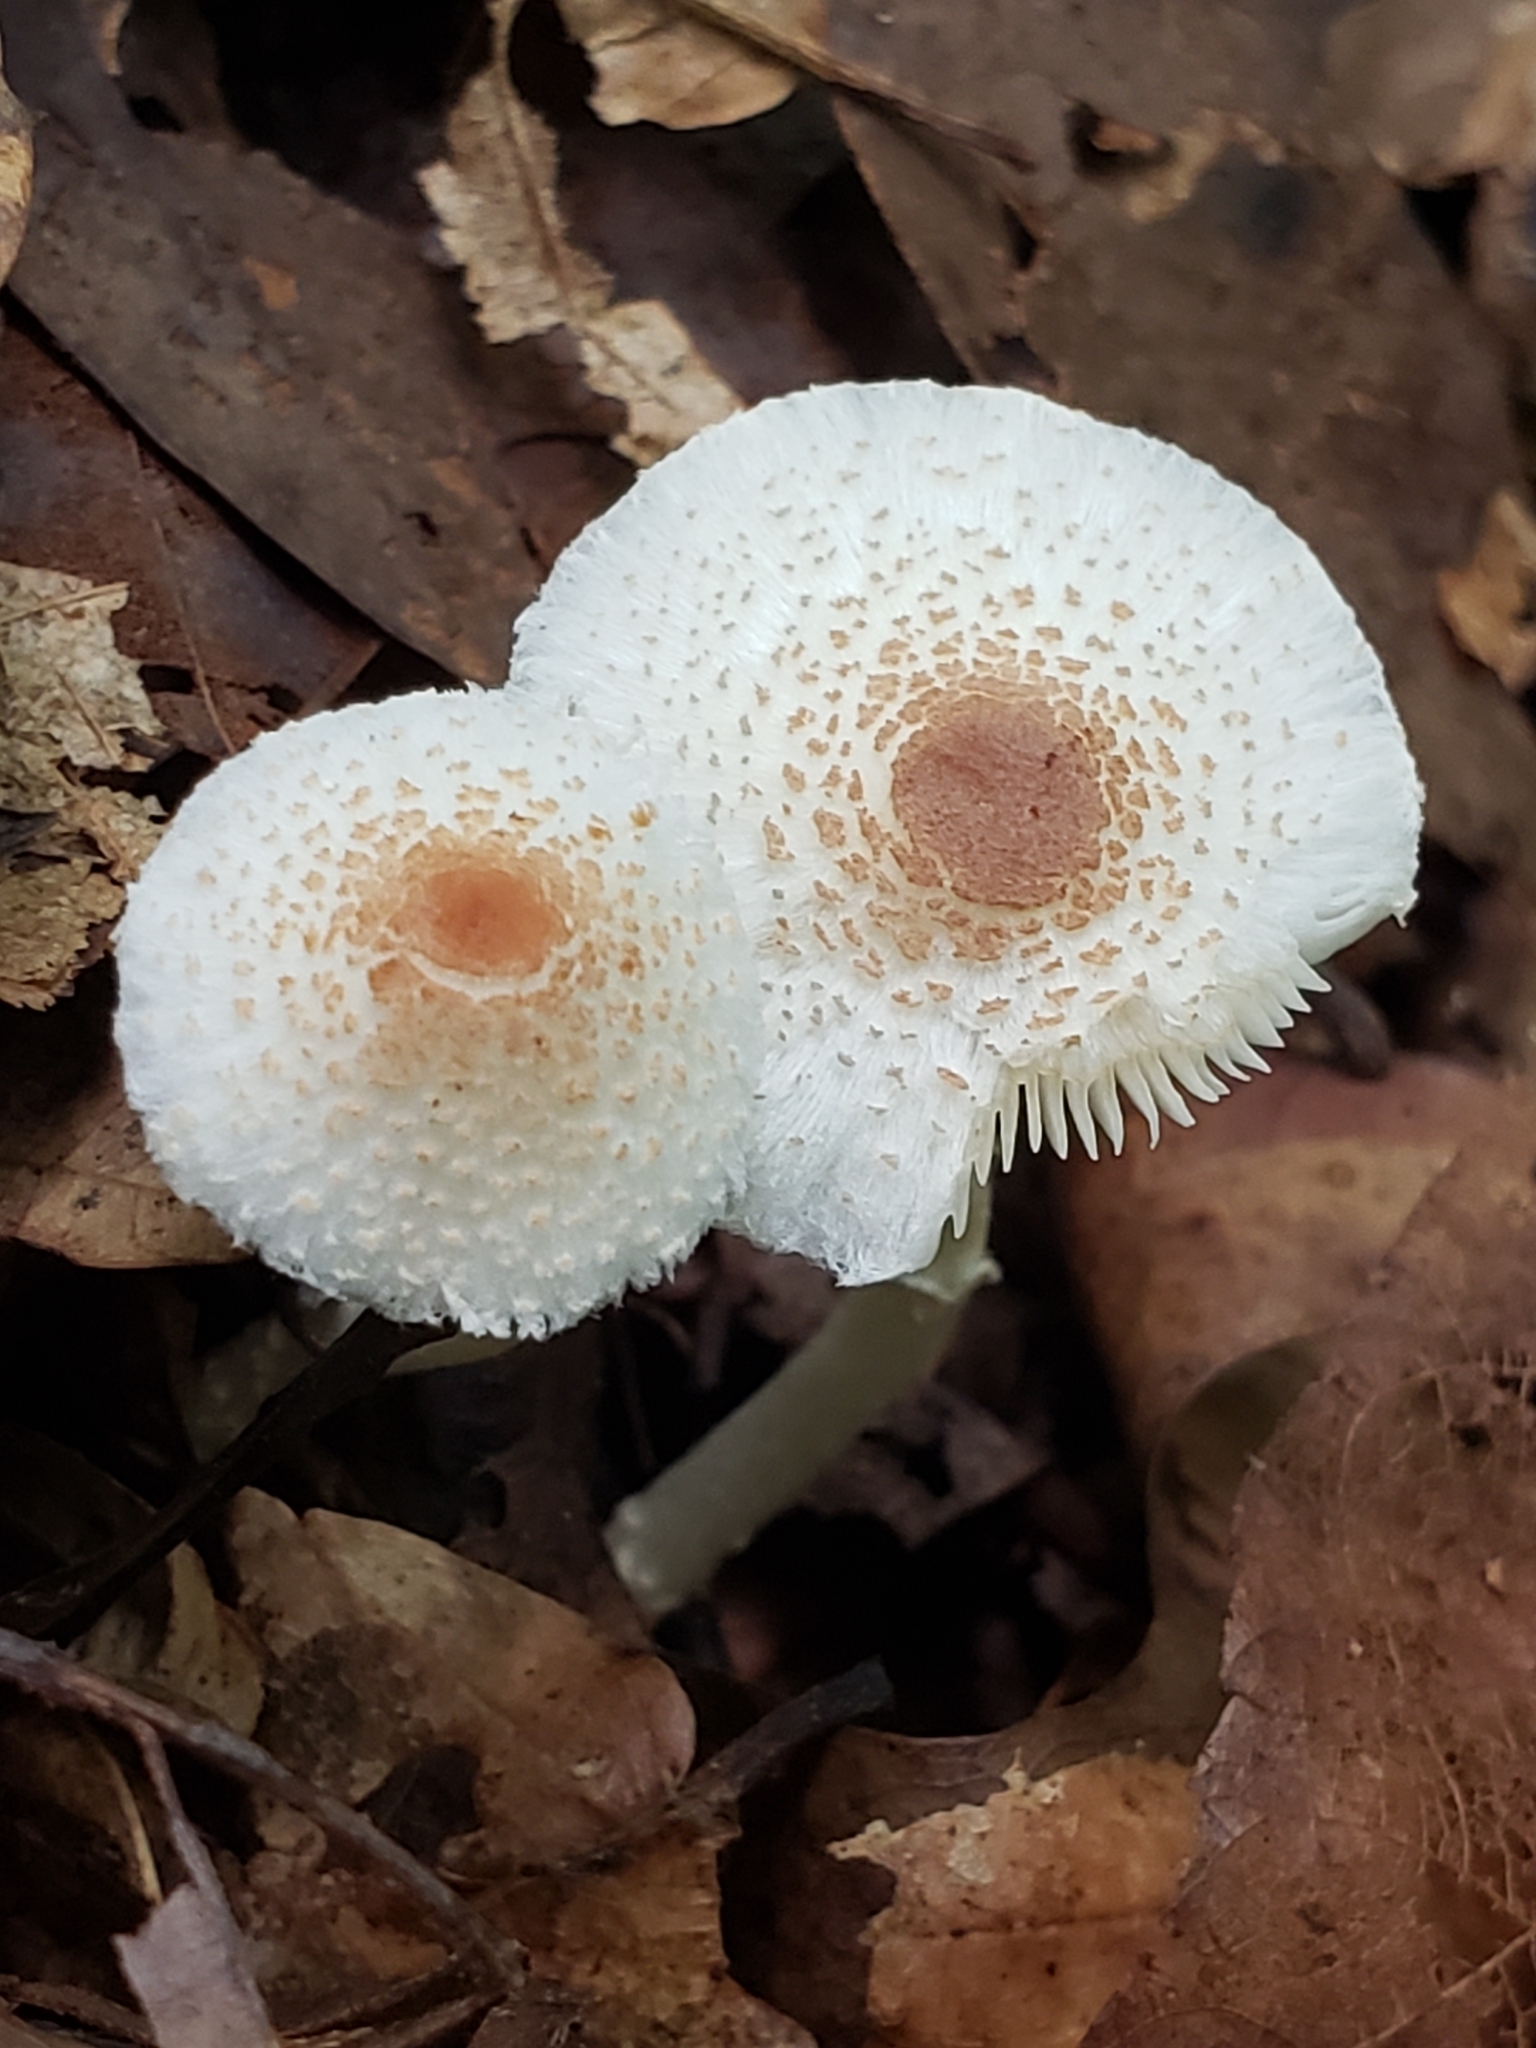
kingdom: Fungi
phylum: Basidiomycota
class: Agaricomycetes
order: Agaricales
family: Agaricaceae
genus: Lepiota
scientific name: Lepiota cristata
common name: Stinking dapperling
